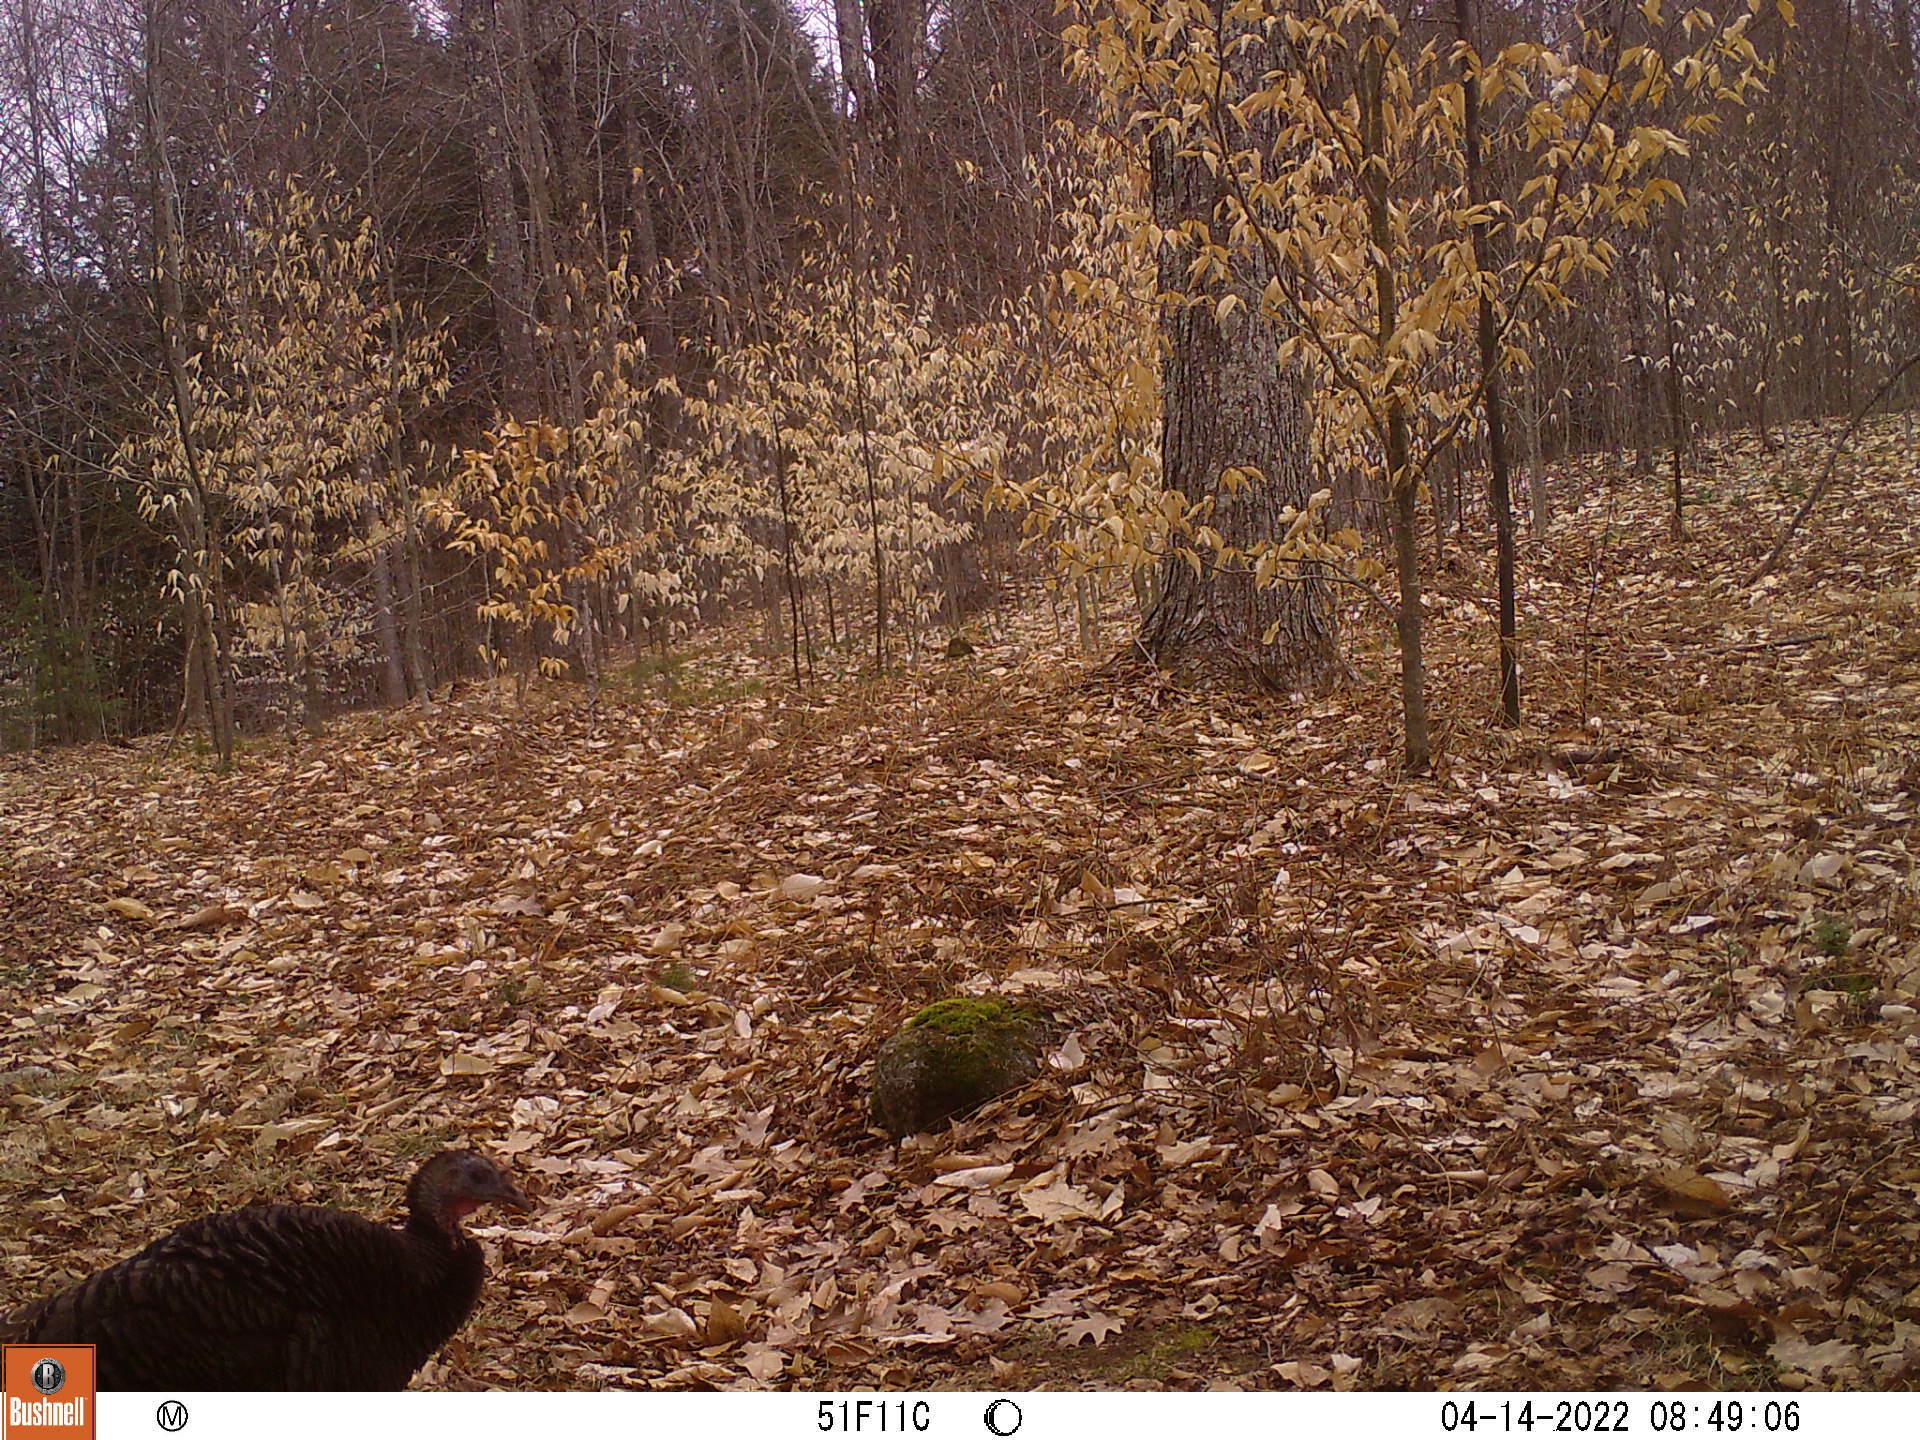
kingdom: Animalia
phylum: Chordata
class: Aves
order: Galliformes
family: Phasianidae
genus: Meleagris
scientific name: Meleagris gallopavo
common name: Wild turkey
